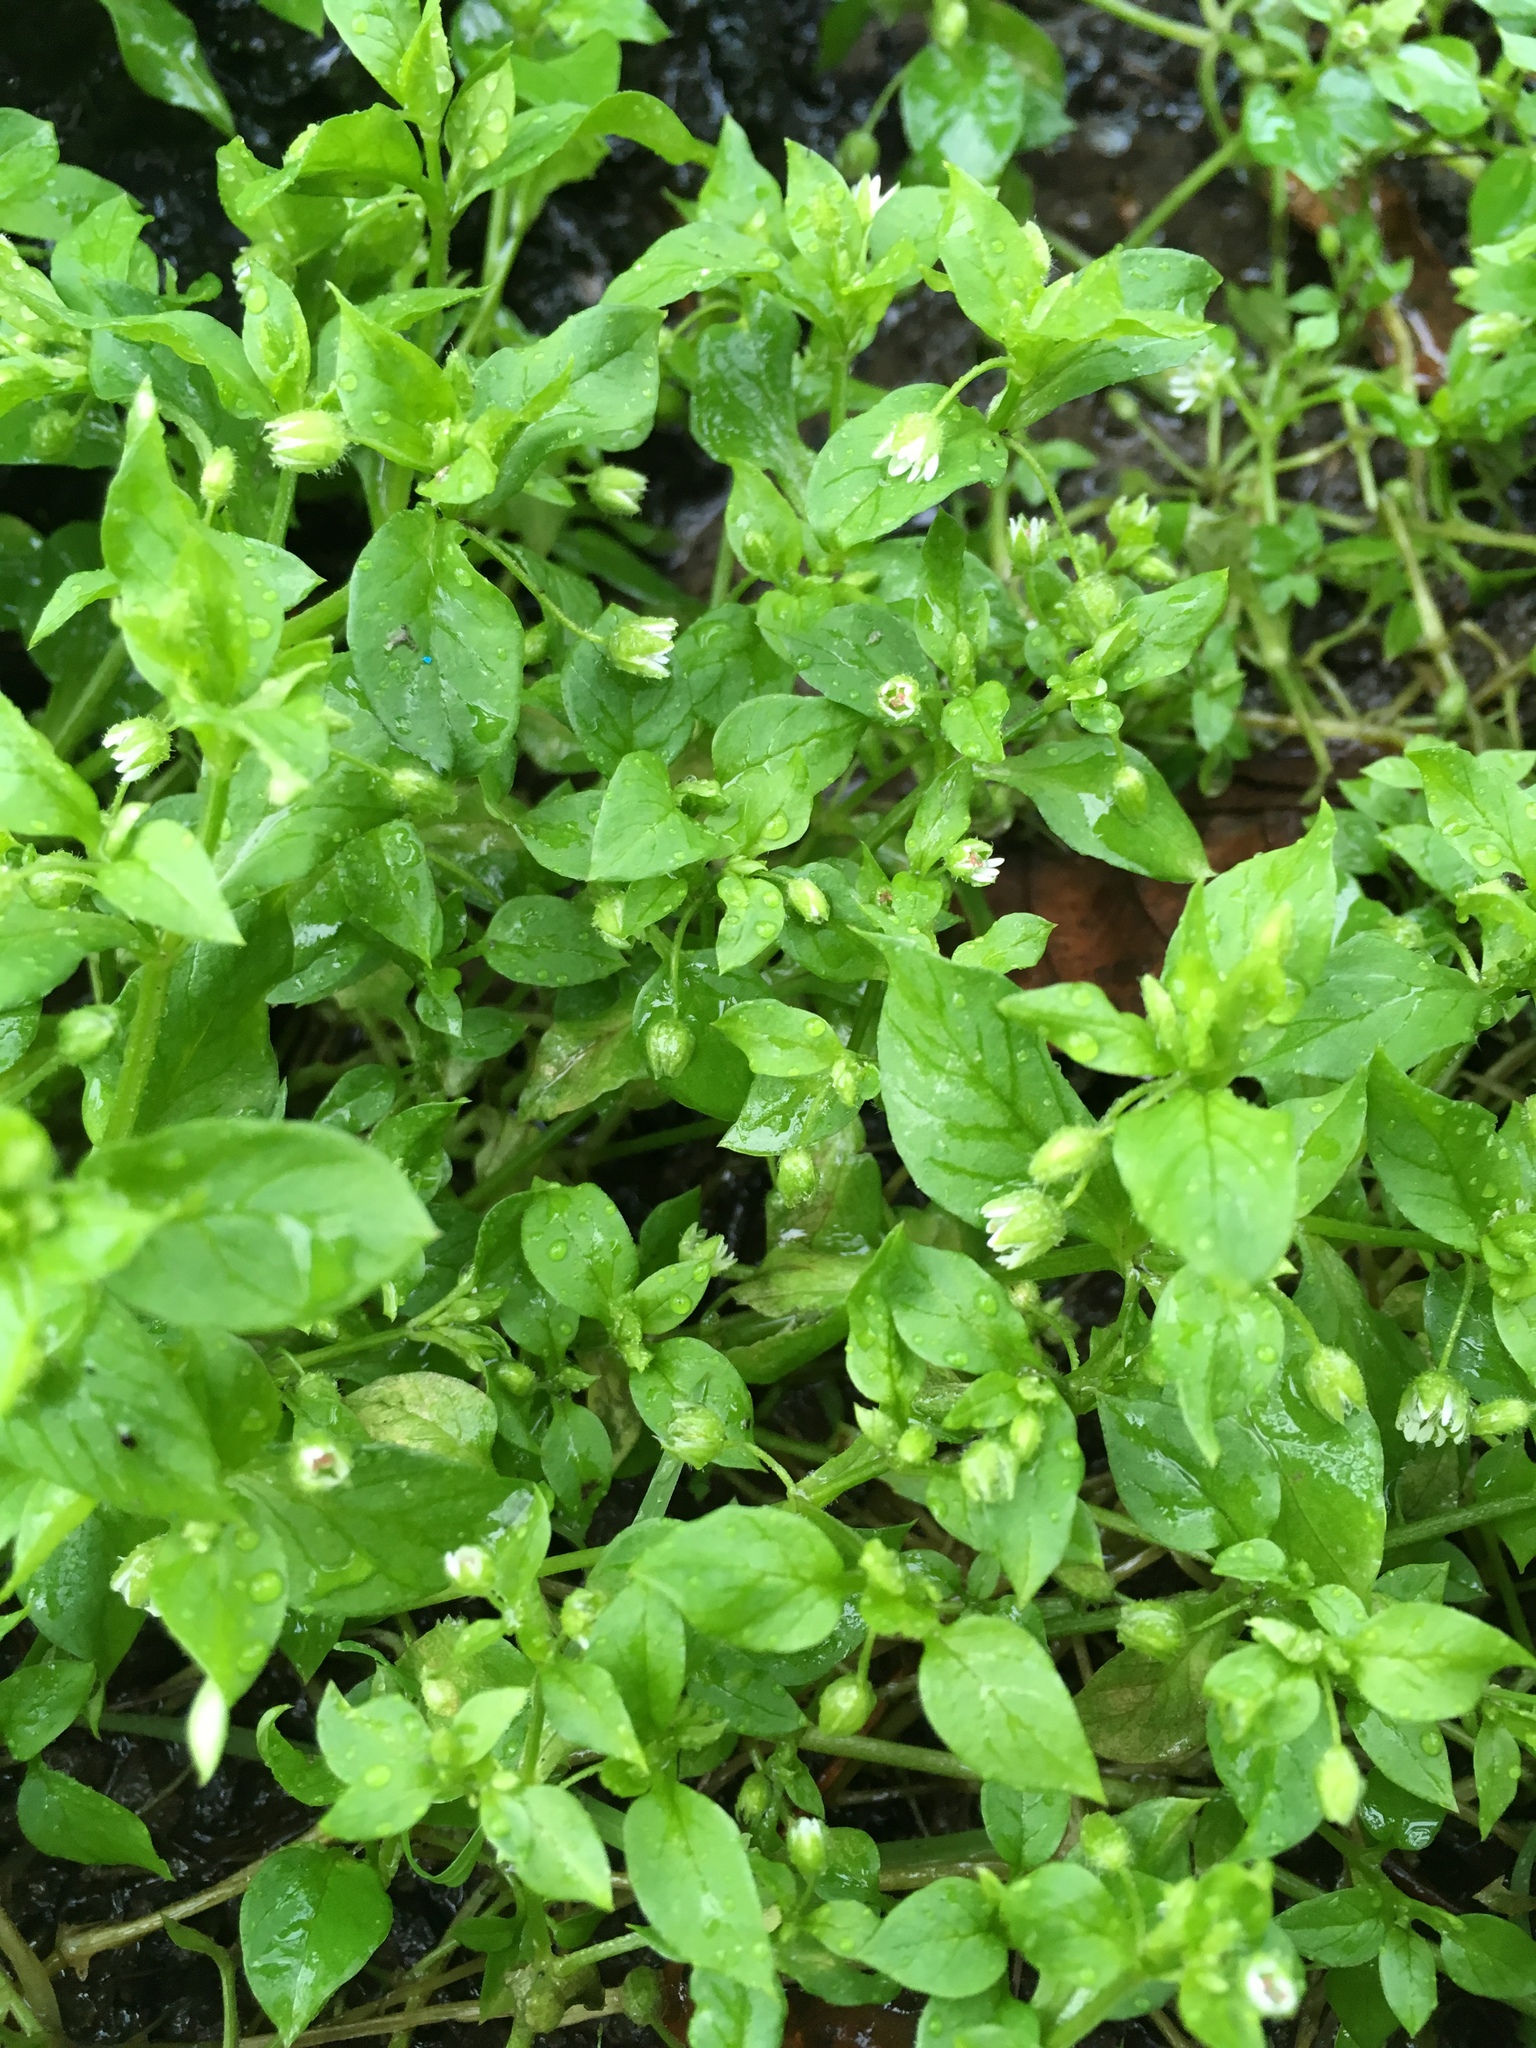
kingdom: Plantae
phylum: Tracheophyta
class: Magnoliopsida
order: Caryophyllales
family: Caryophyllaceae
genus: Stellaria
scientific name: Stellaria media
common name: Common chickweed
